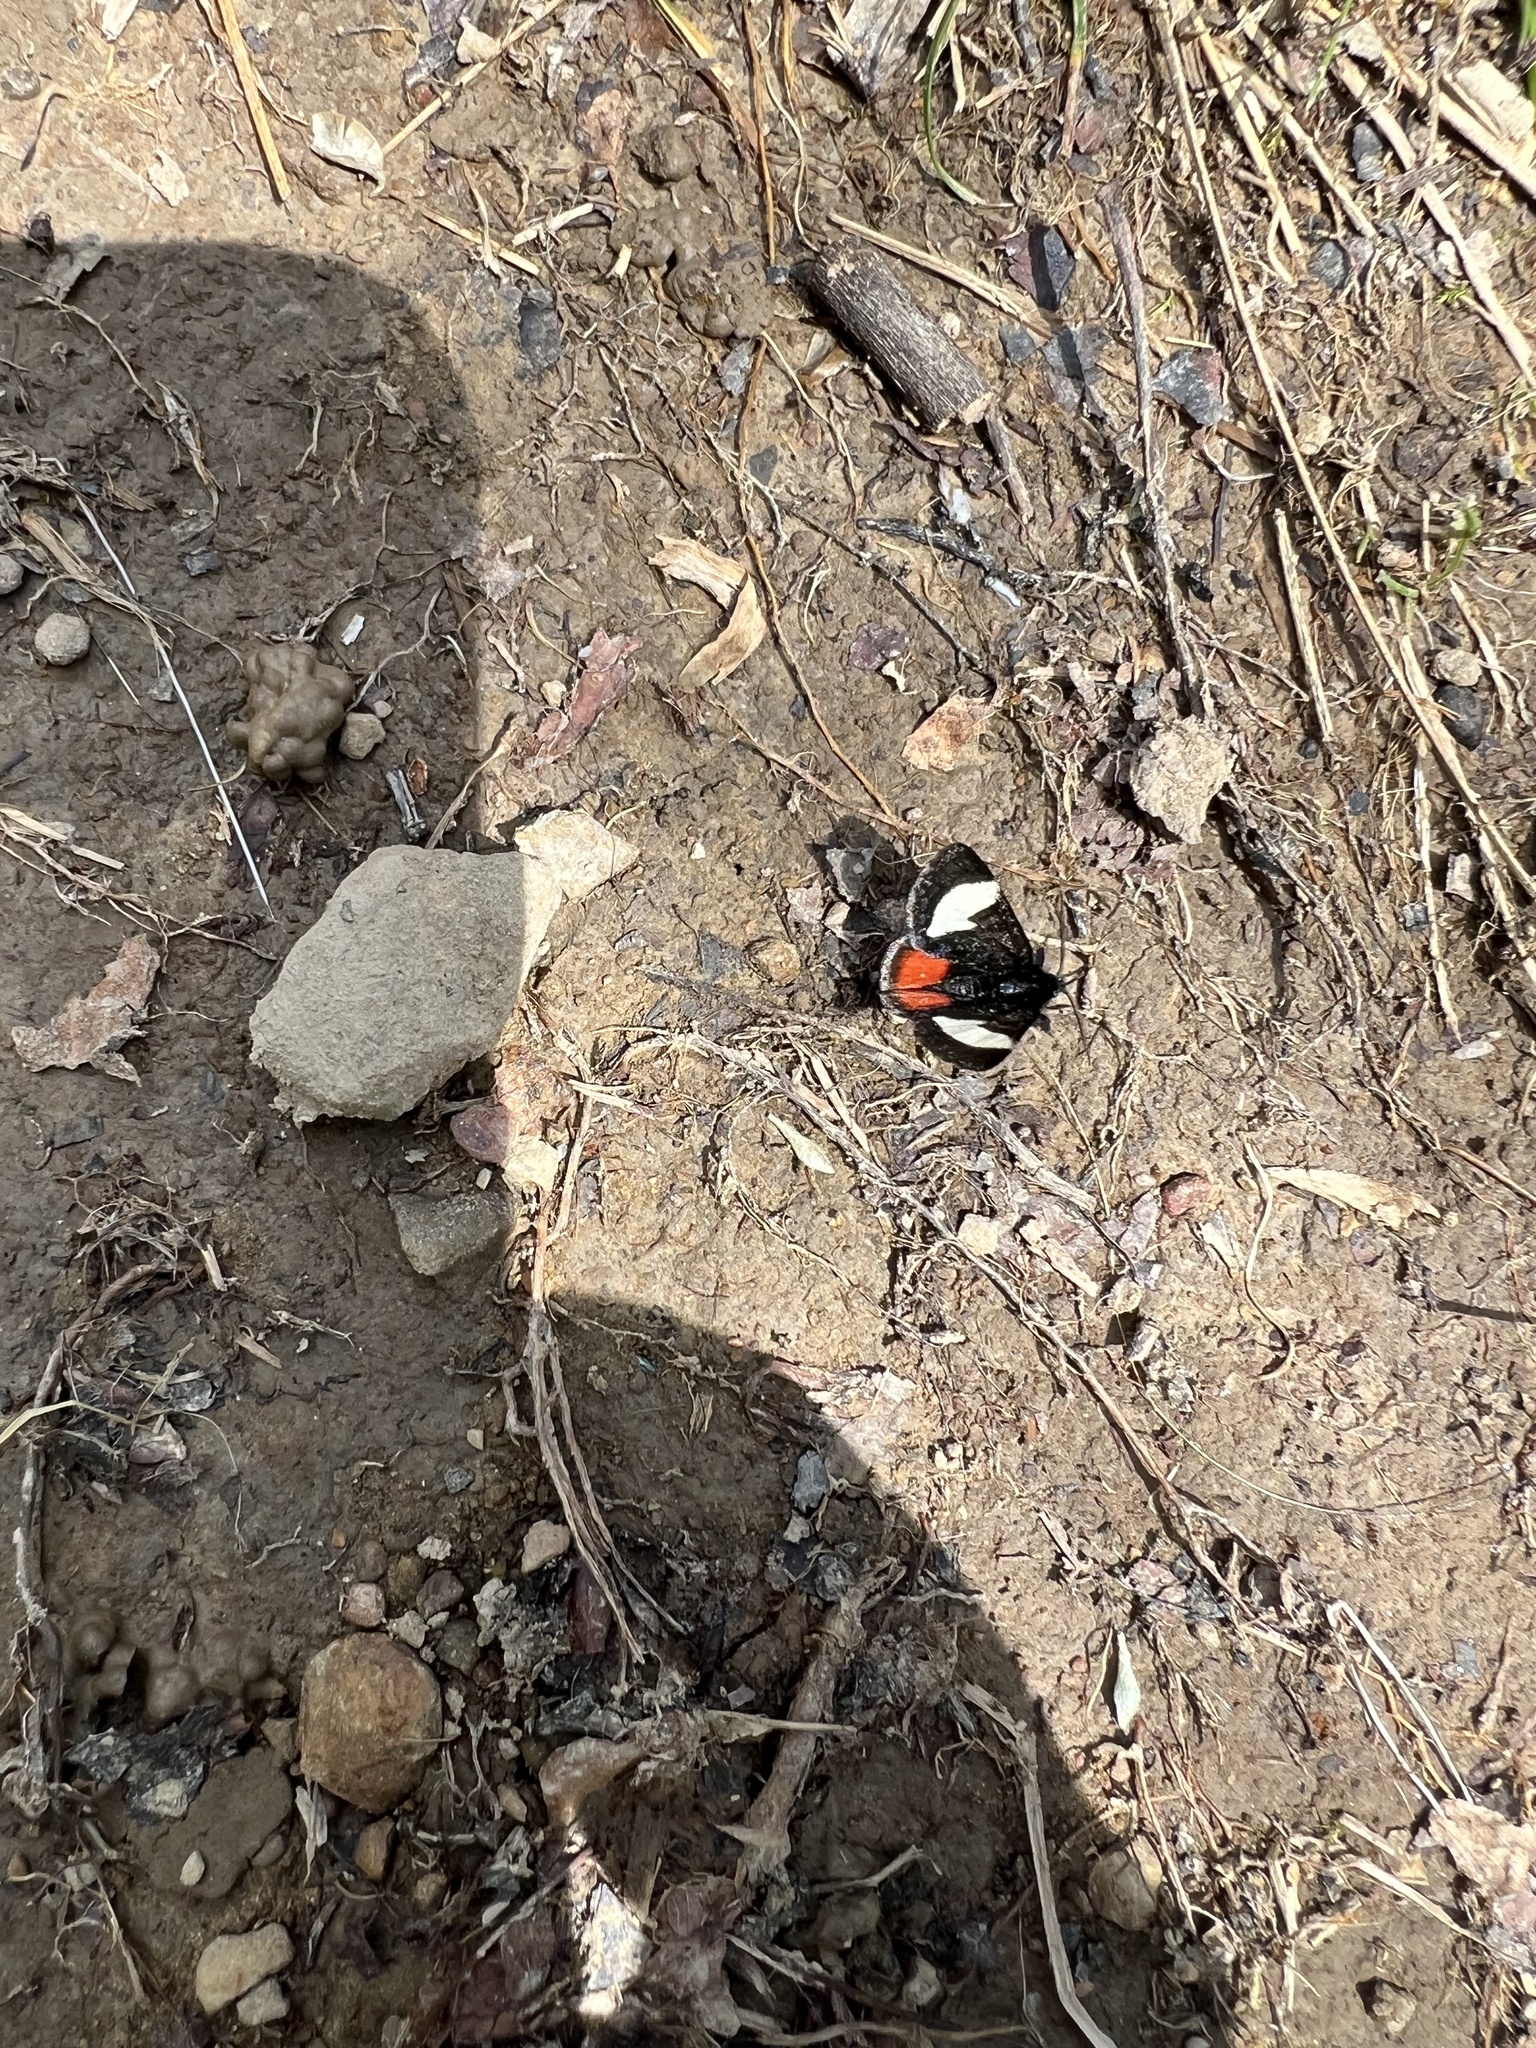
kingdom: Animalia
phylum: Arthropoda
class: Insecta
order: Lepidoptera
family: Noctuidae
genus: Psychomorpha
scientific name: Psychomorpha epimenis
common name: Grapevine epimenis moth
